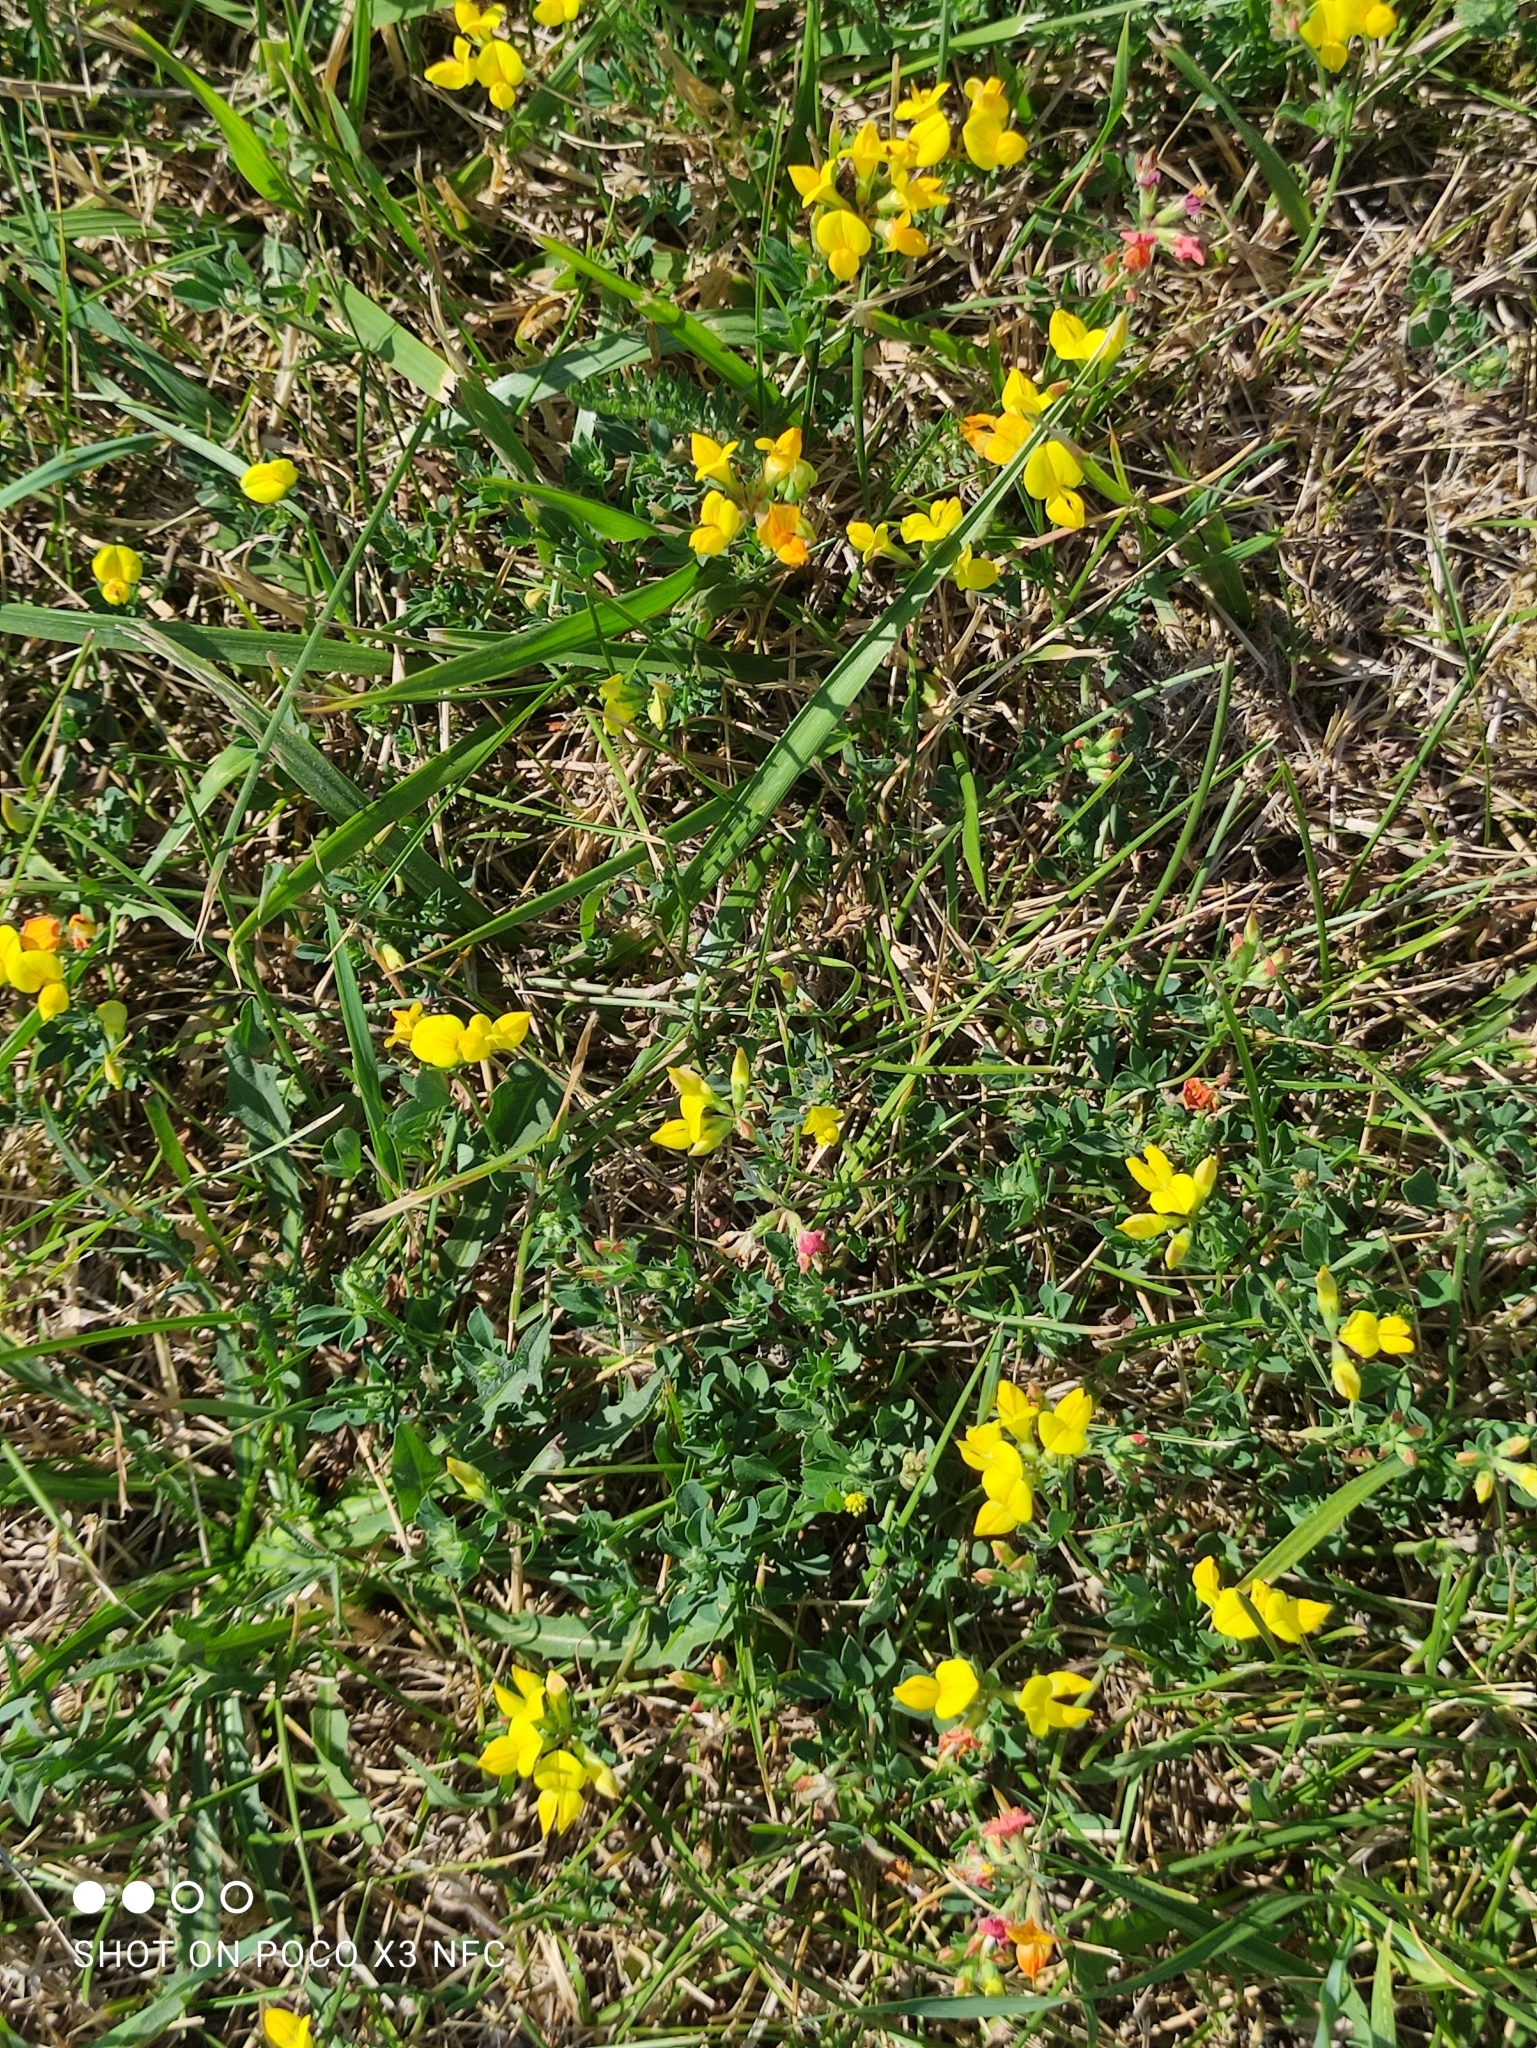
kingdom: Plantae
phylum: Tracheophyta
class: Magnoliopsida
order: Fabales
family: Fabaceae
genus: Lotus
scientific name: Lotus corniculatus
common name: Common bird's-foot-trefoil
